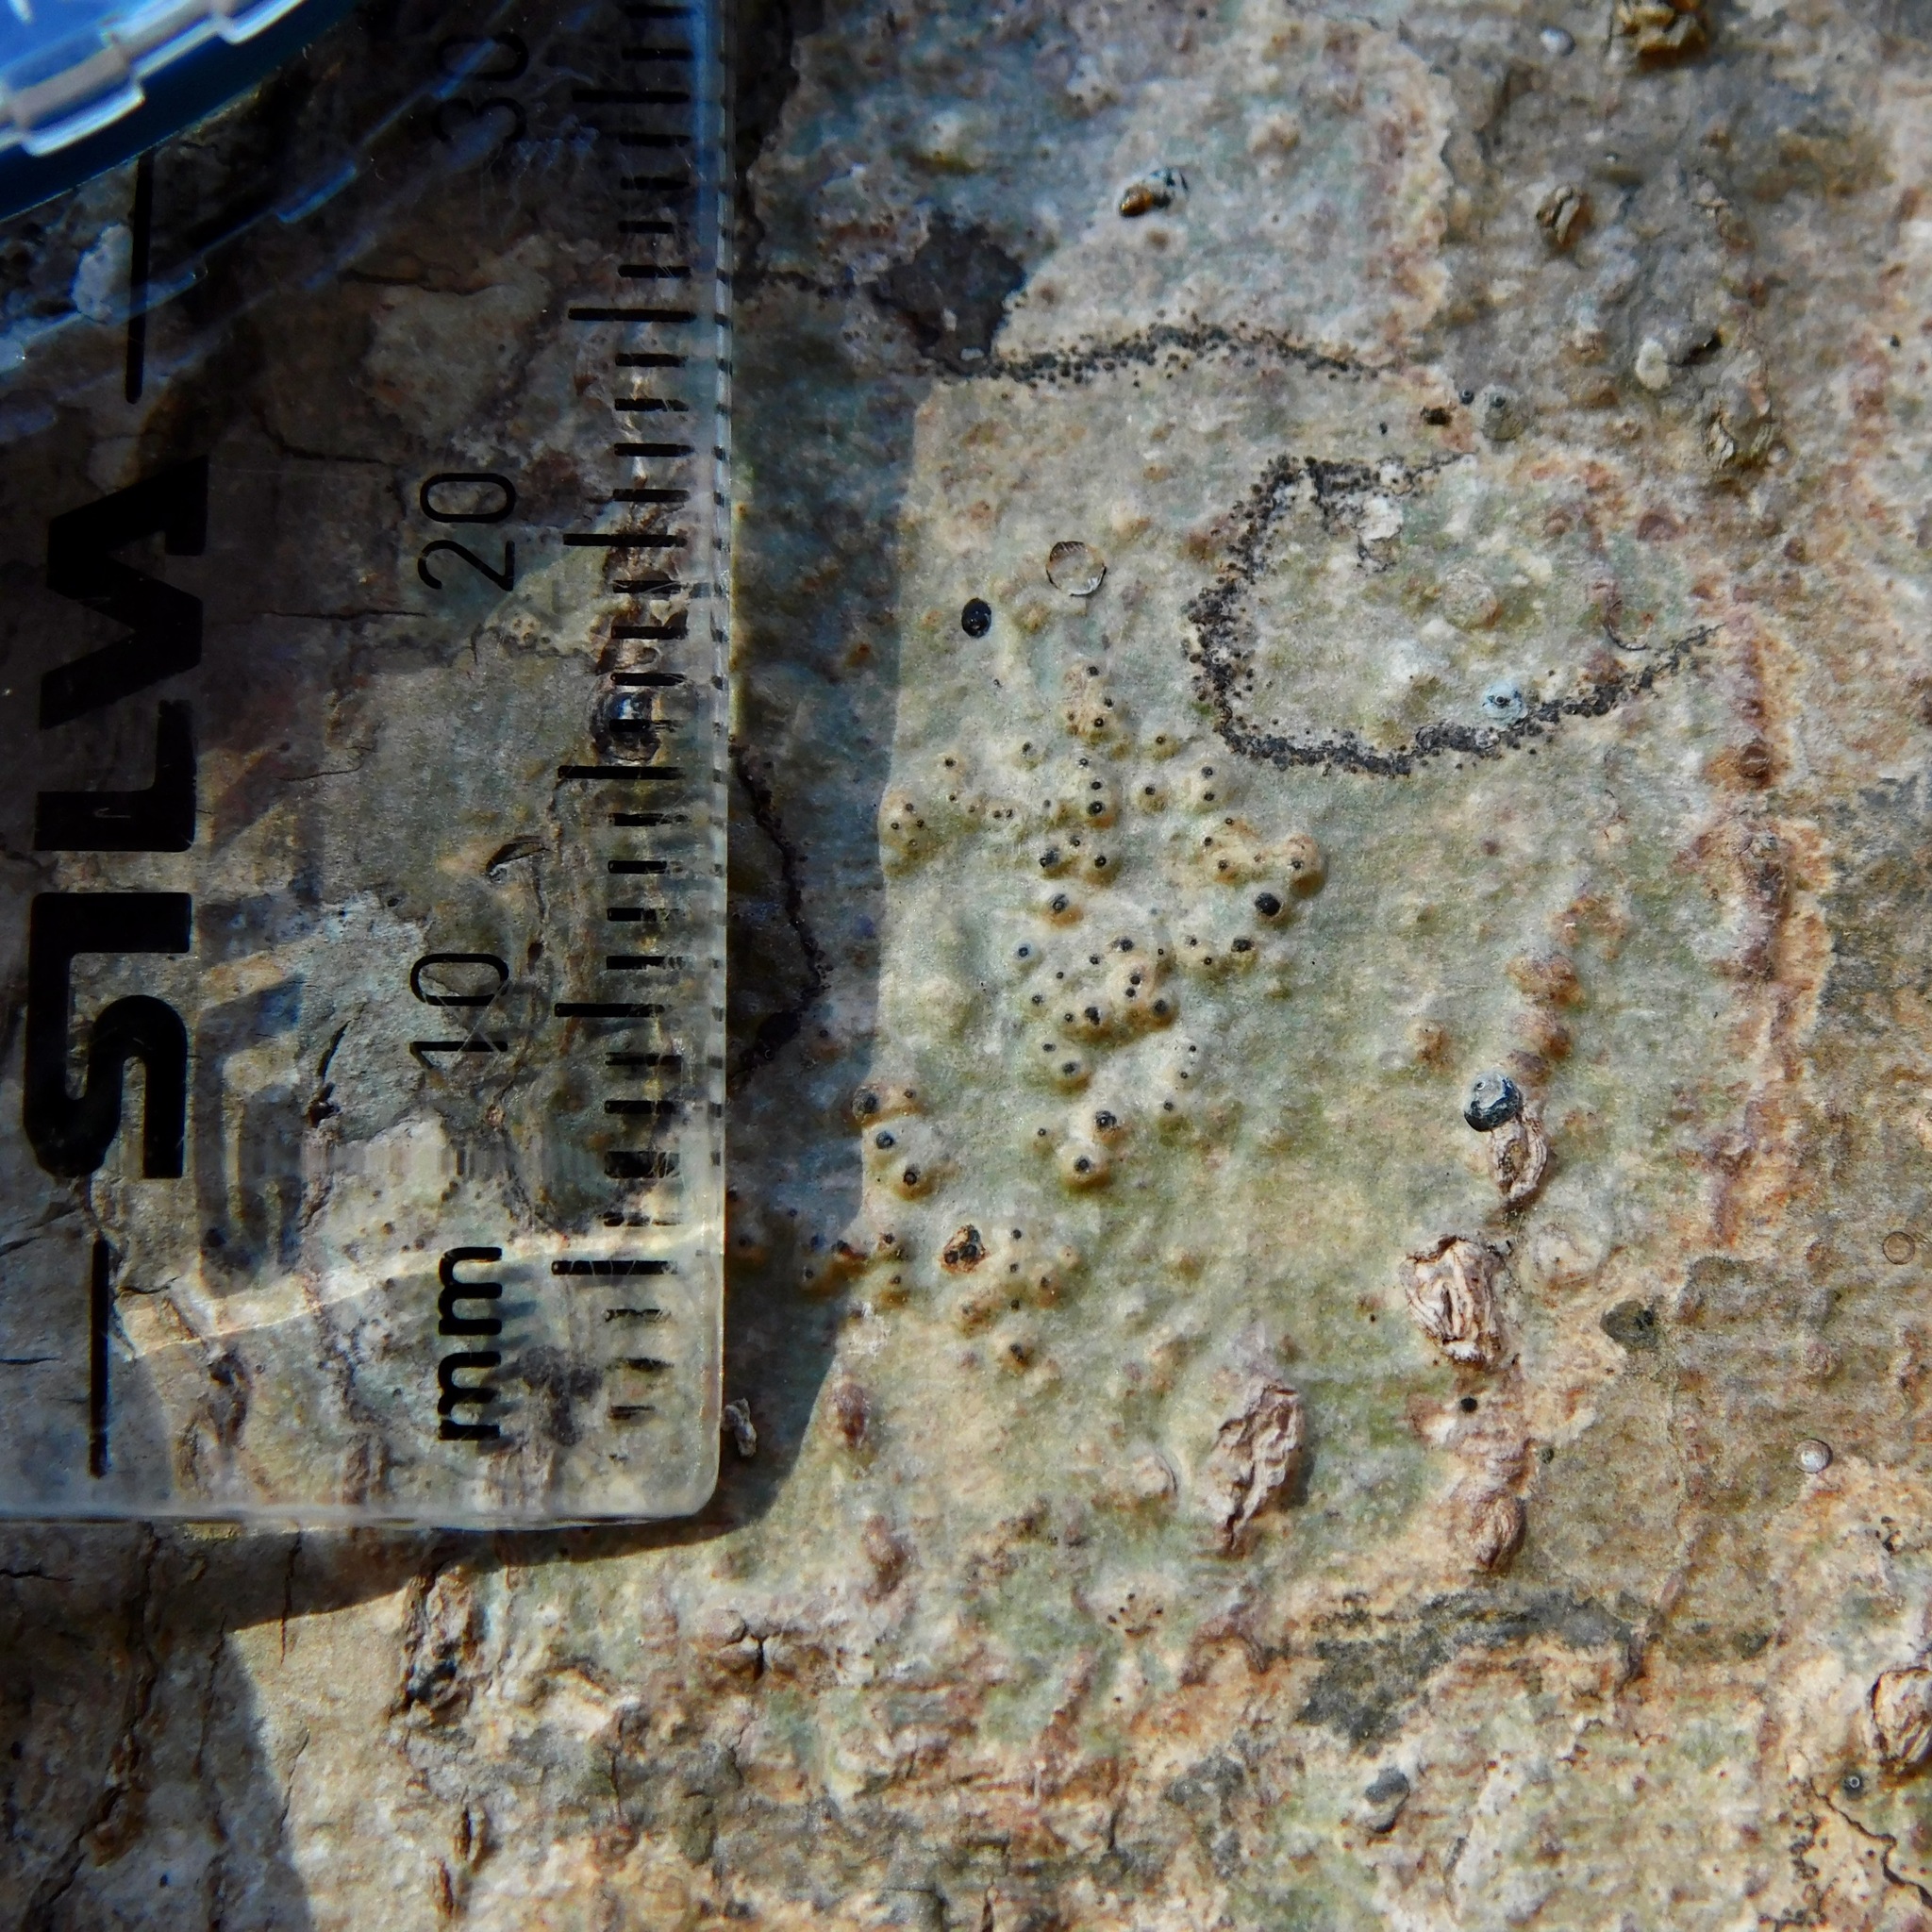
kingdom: Fungi
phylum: Ascomycota
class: Eurotiomycetes
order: Pyrenulales
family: Pyrenulaceae
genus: Anthracothecium
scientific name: Anthracothecium prasinum
